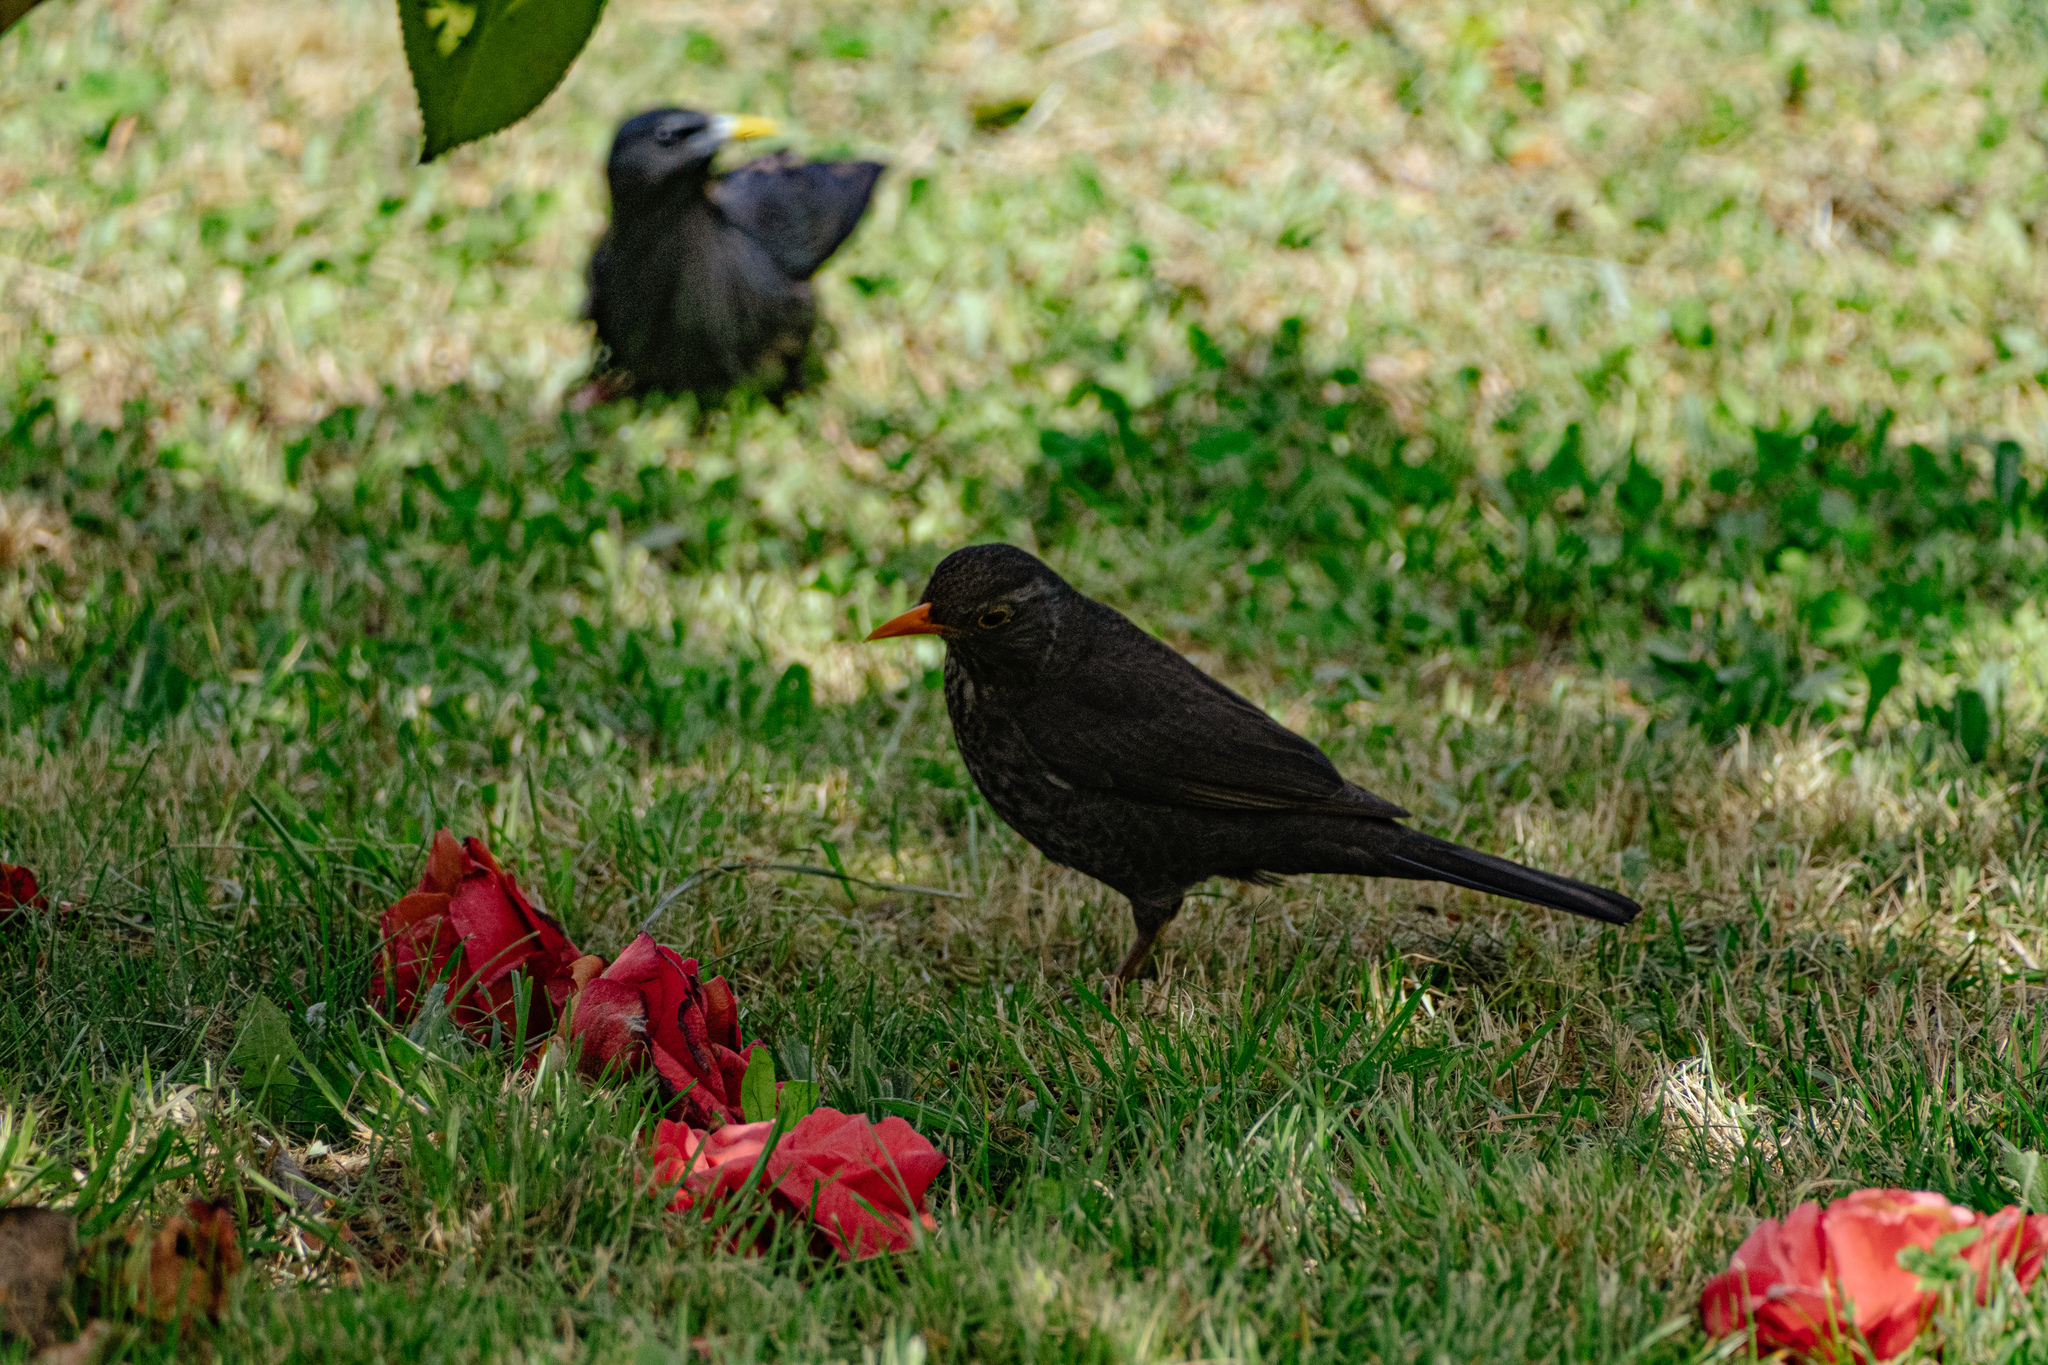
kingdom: Animalia
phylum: Chordata
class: Aves
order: Passeriformes
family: Turdidae
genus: Turdus
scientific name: Turdus merula
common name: Common blackbird
